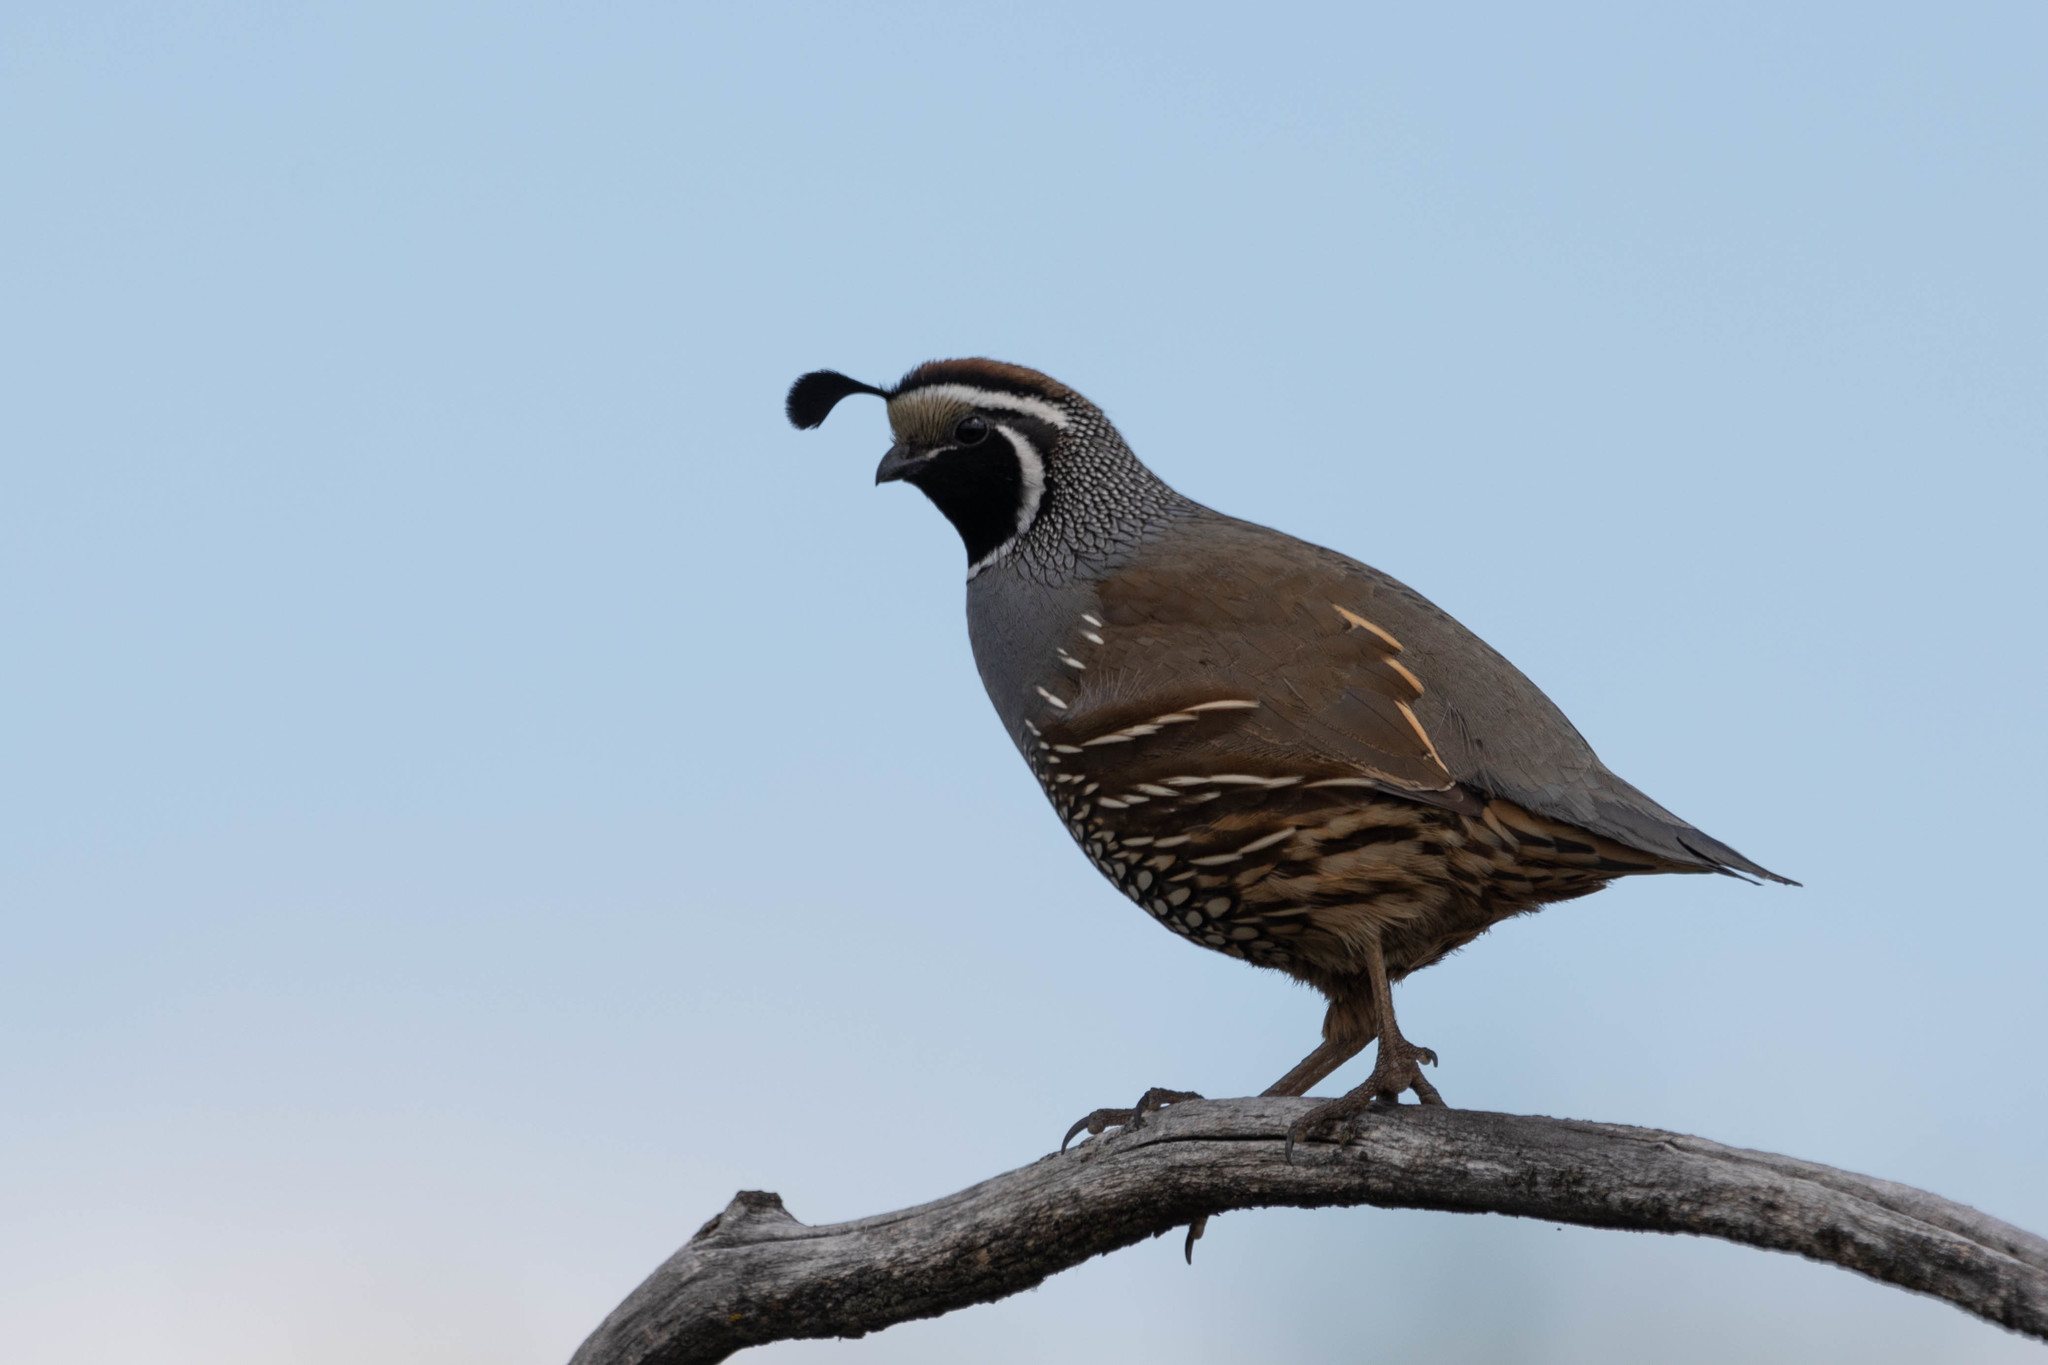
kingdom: Animalia
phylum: Chordata
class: Aves
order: Galliformes
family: Odontophoridae
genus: Callipepla
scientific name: Callipepla californica
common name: California quail
